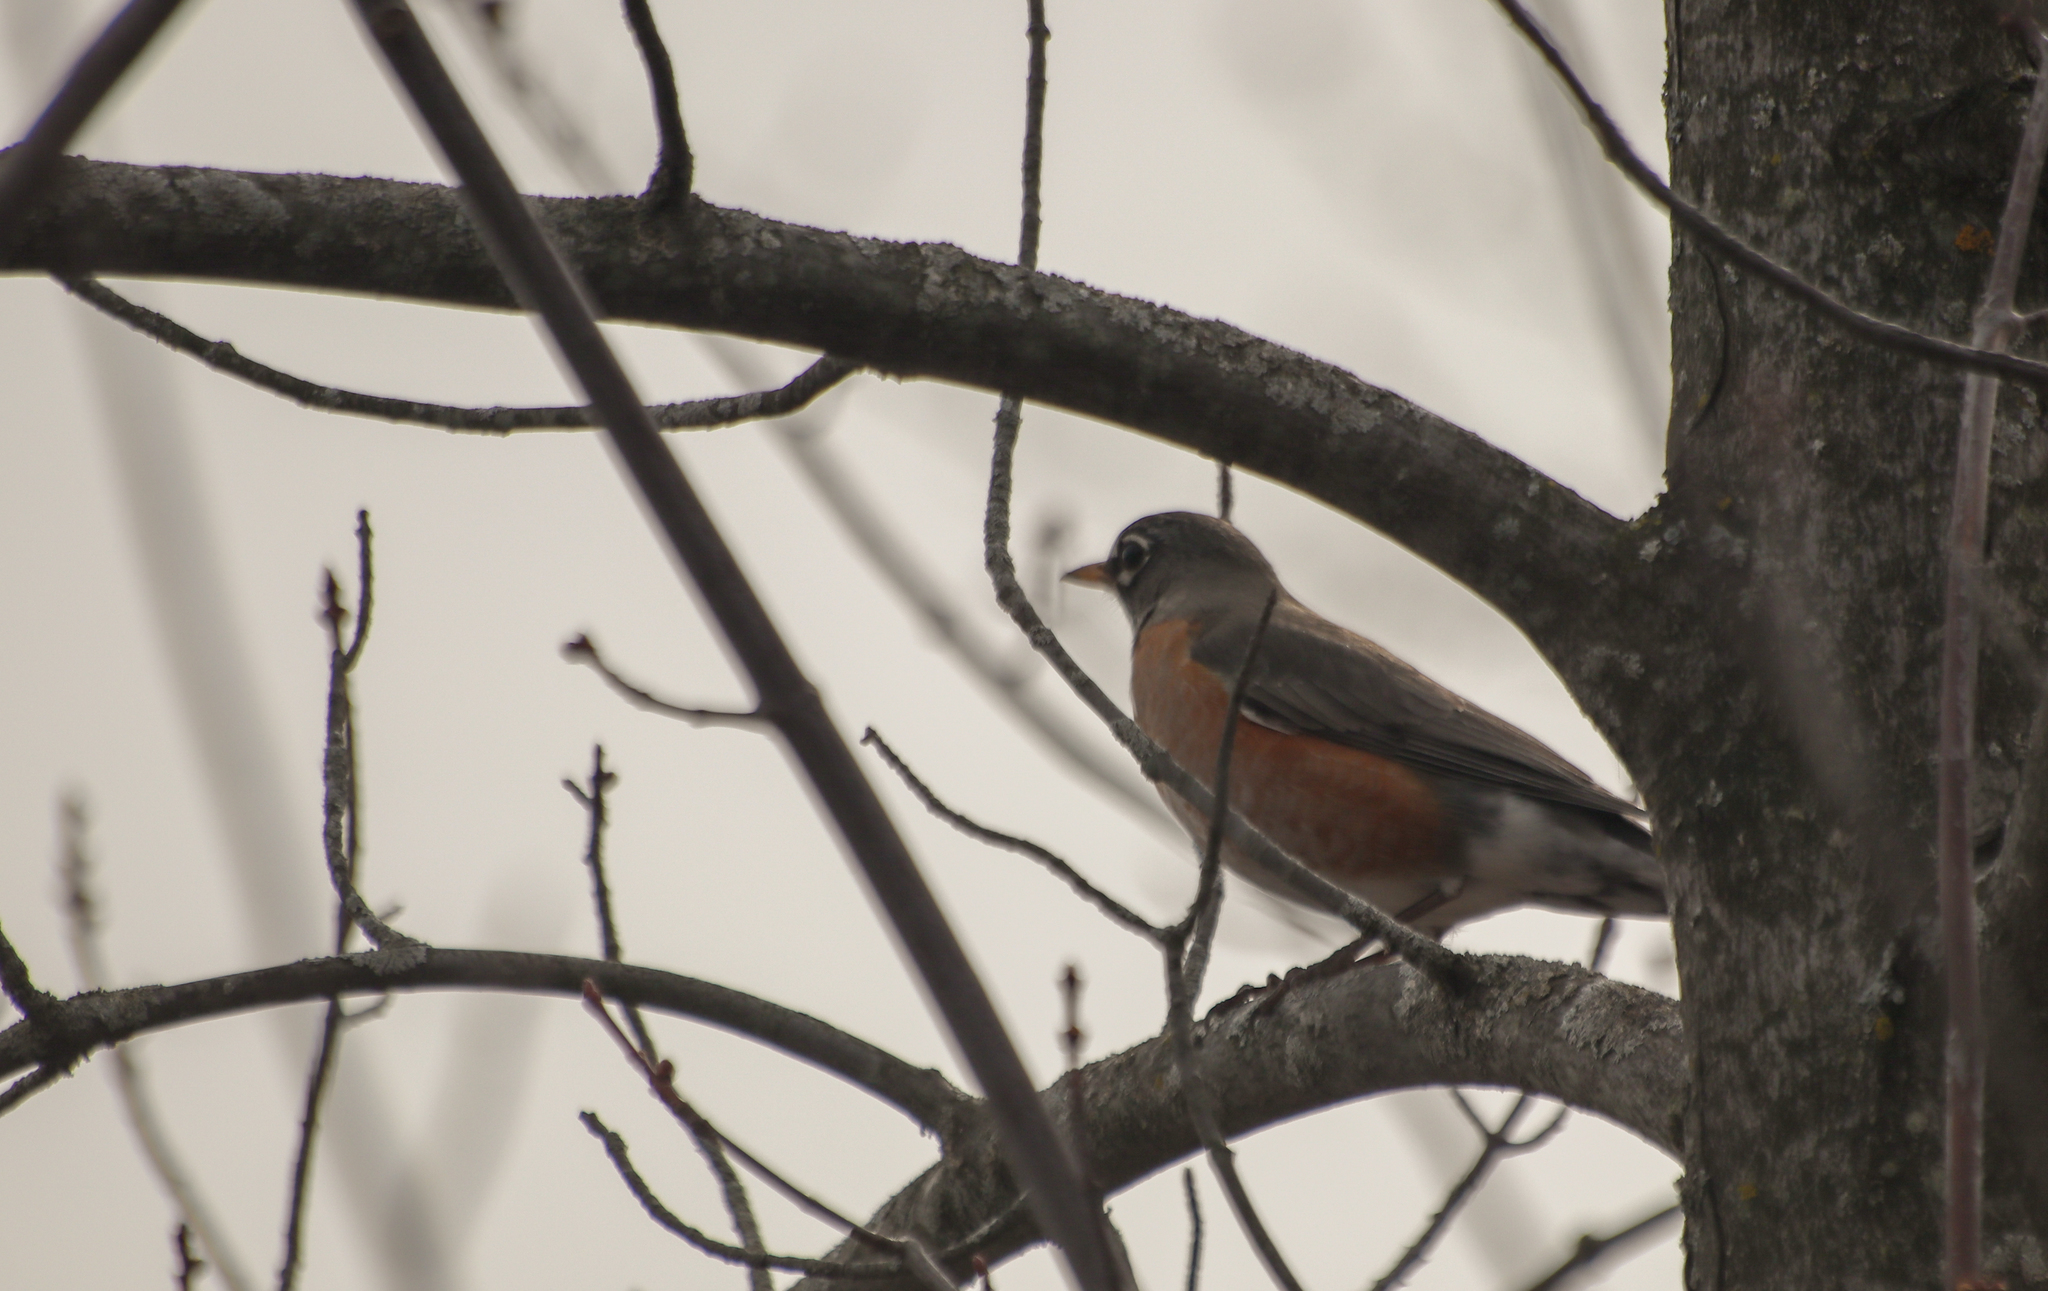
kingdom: Animalia
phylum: Chordata
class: Aves
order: Passeriformes
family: Turdidae
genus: Turdus
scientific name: Turdus migratorius
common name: American robin
